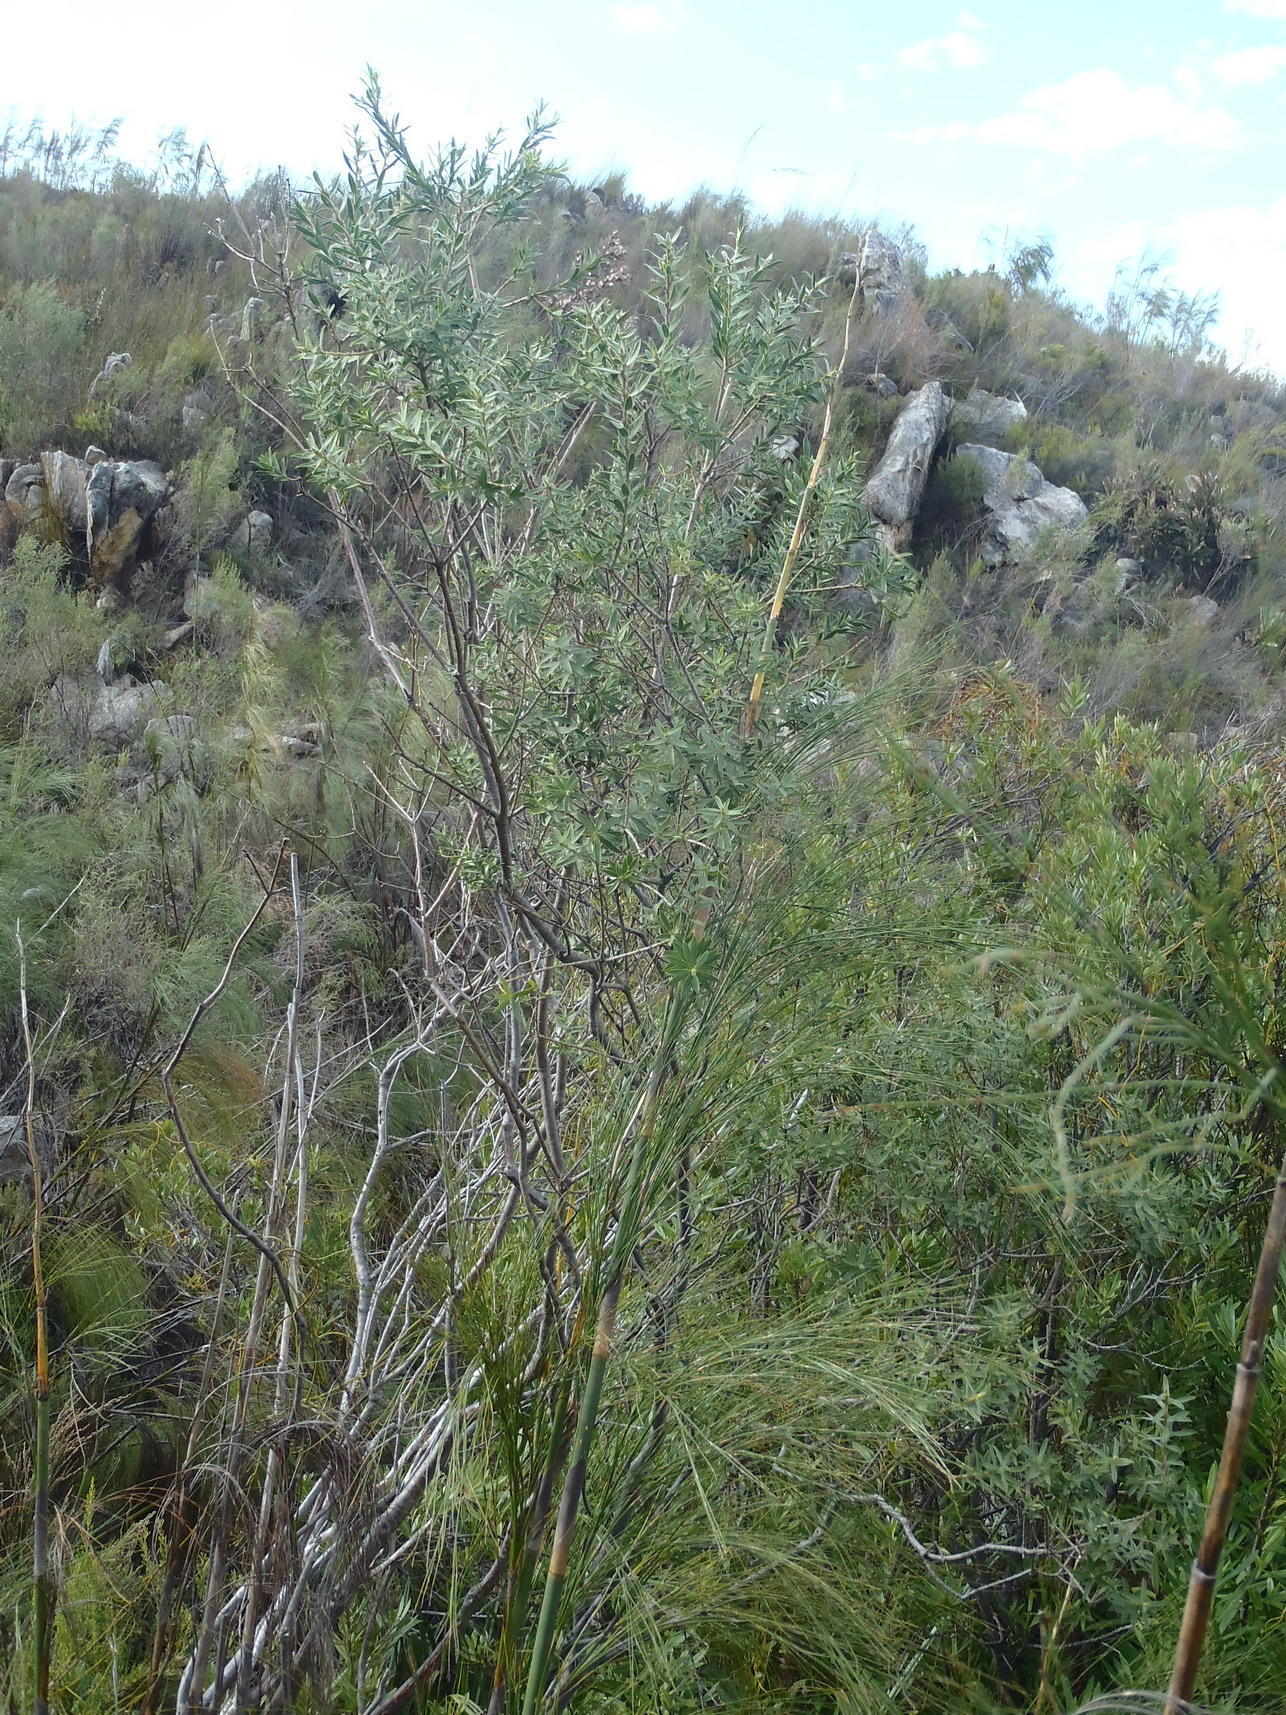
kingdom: Plantae
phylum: Tracheophyta
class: Magnoliopsida
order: Fabales
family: Fabaceae
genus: Liparia
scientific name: Liparia racemosa
